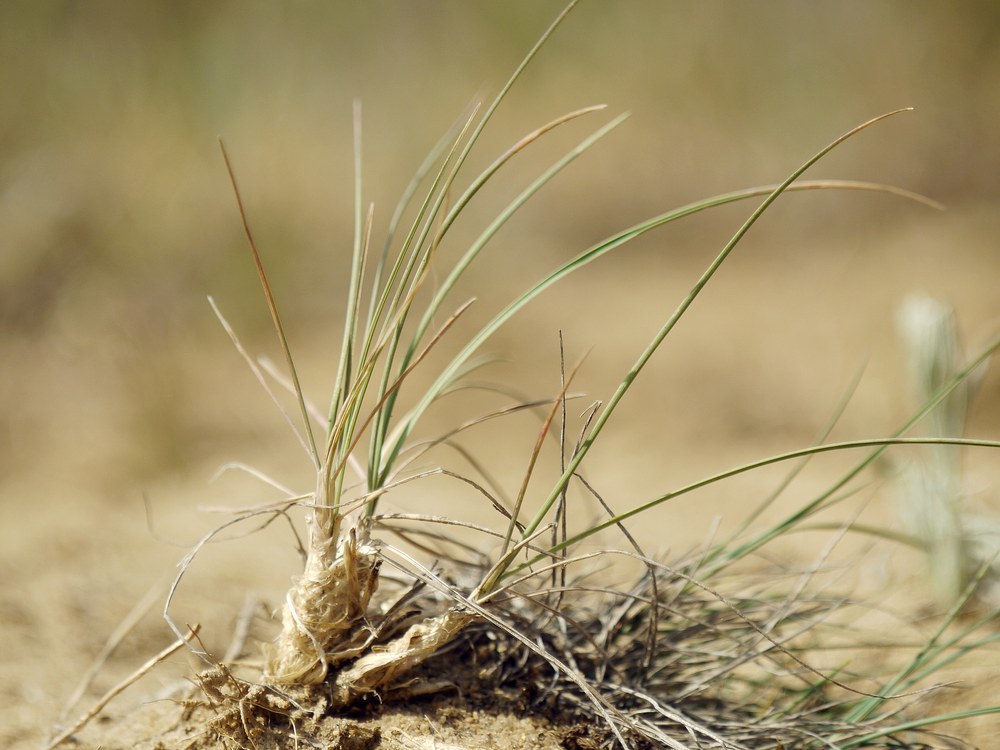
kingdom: Plantae
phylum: Tracheophyta
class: Liliopsida
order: Poales
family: Poaceae
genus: Koeleria
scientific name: Koeleria glauca
